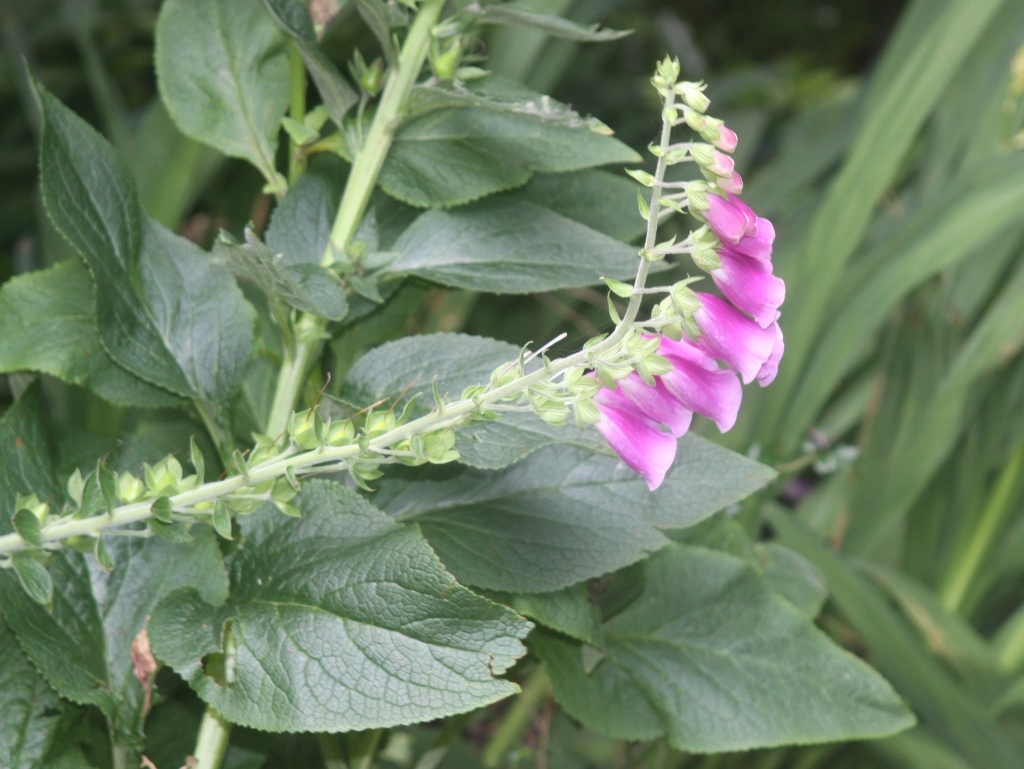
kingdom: Plantae
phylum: Tracheophyta
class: Magnoliopsida
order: Lamiales
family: Plantaginaceae
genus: Digitalis
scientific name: Digitalis purpurea
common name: Foxglove
